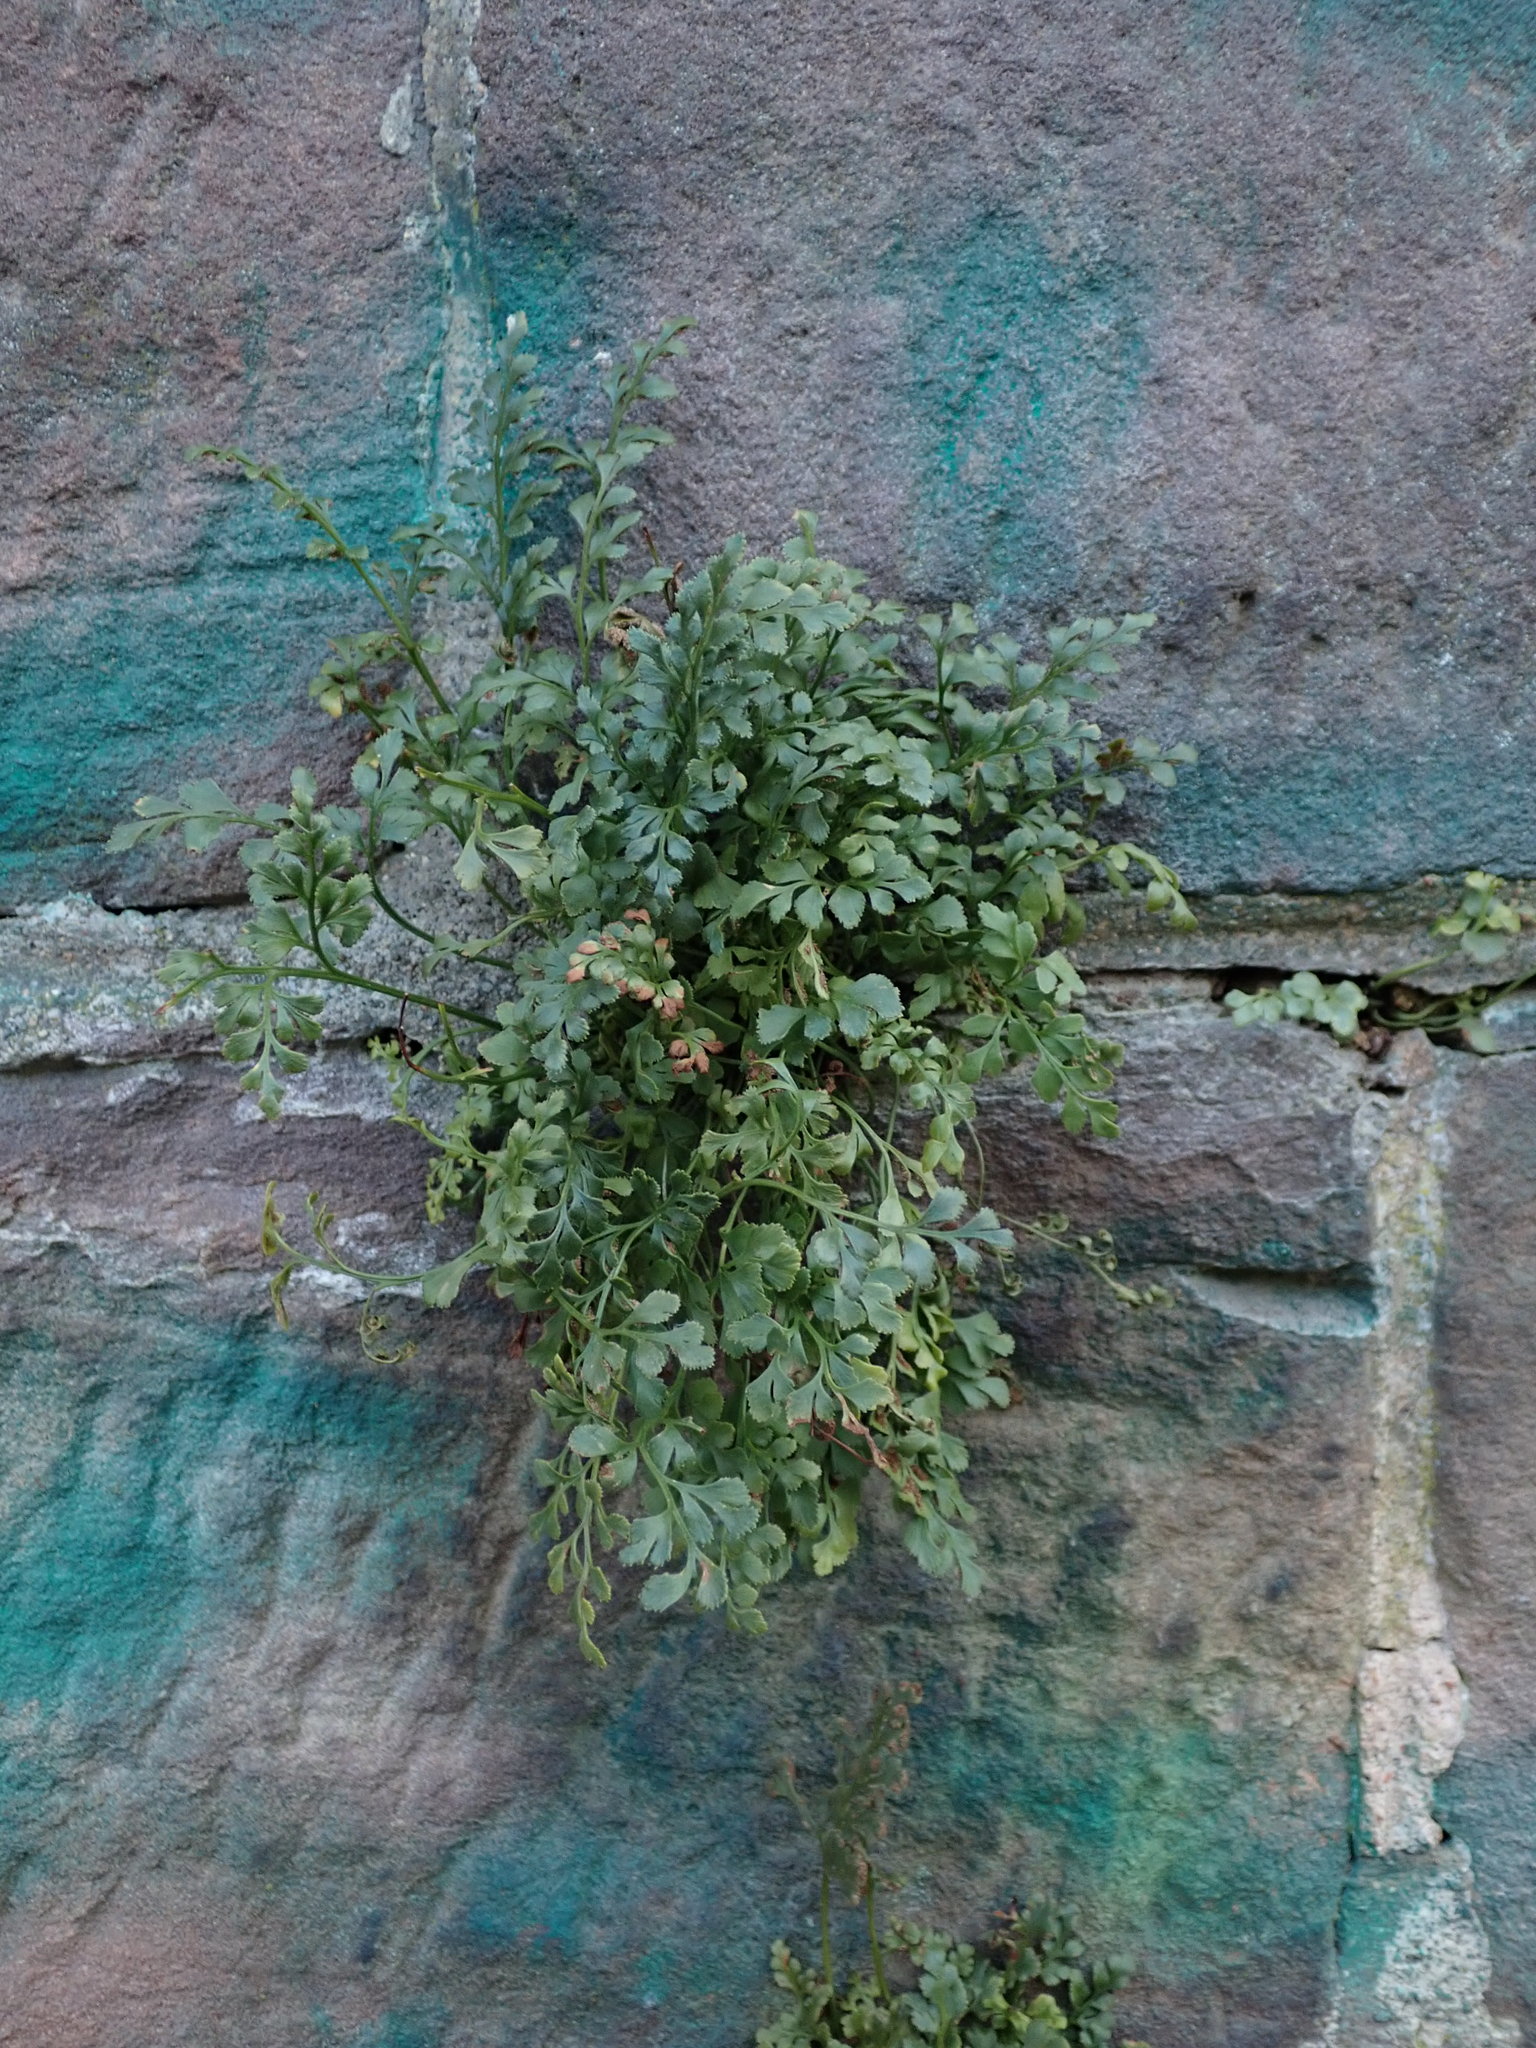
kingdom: Plantae
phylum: Tracheophyta
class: Polypodiopsida
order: Polypodiales
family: Aspleniaceae
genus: Asplenium
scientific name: Asplenium ruta-muraria
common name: Wall-rue
